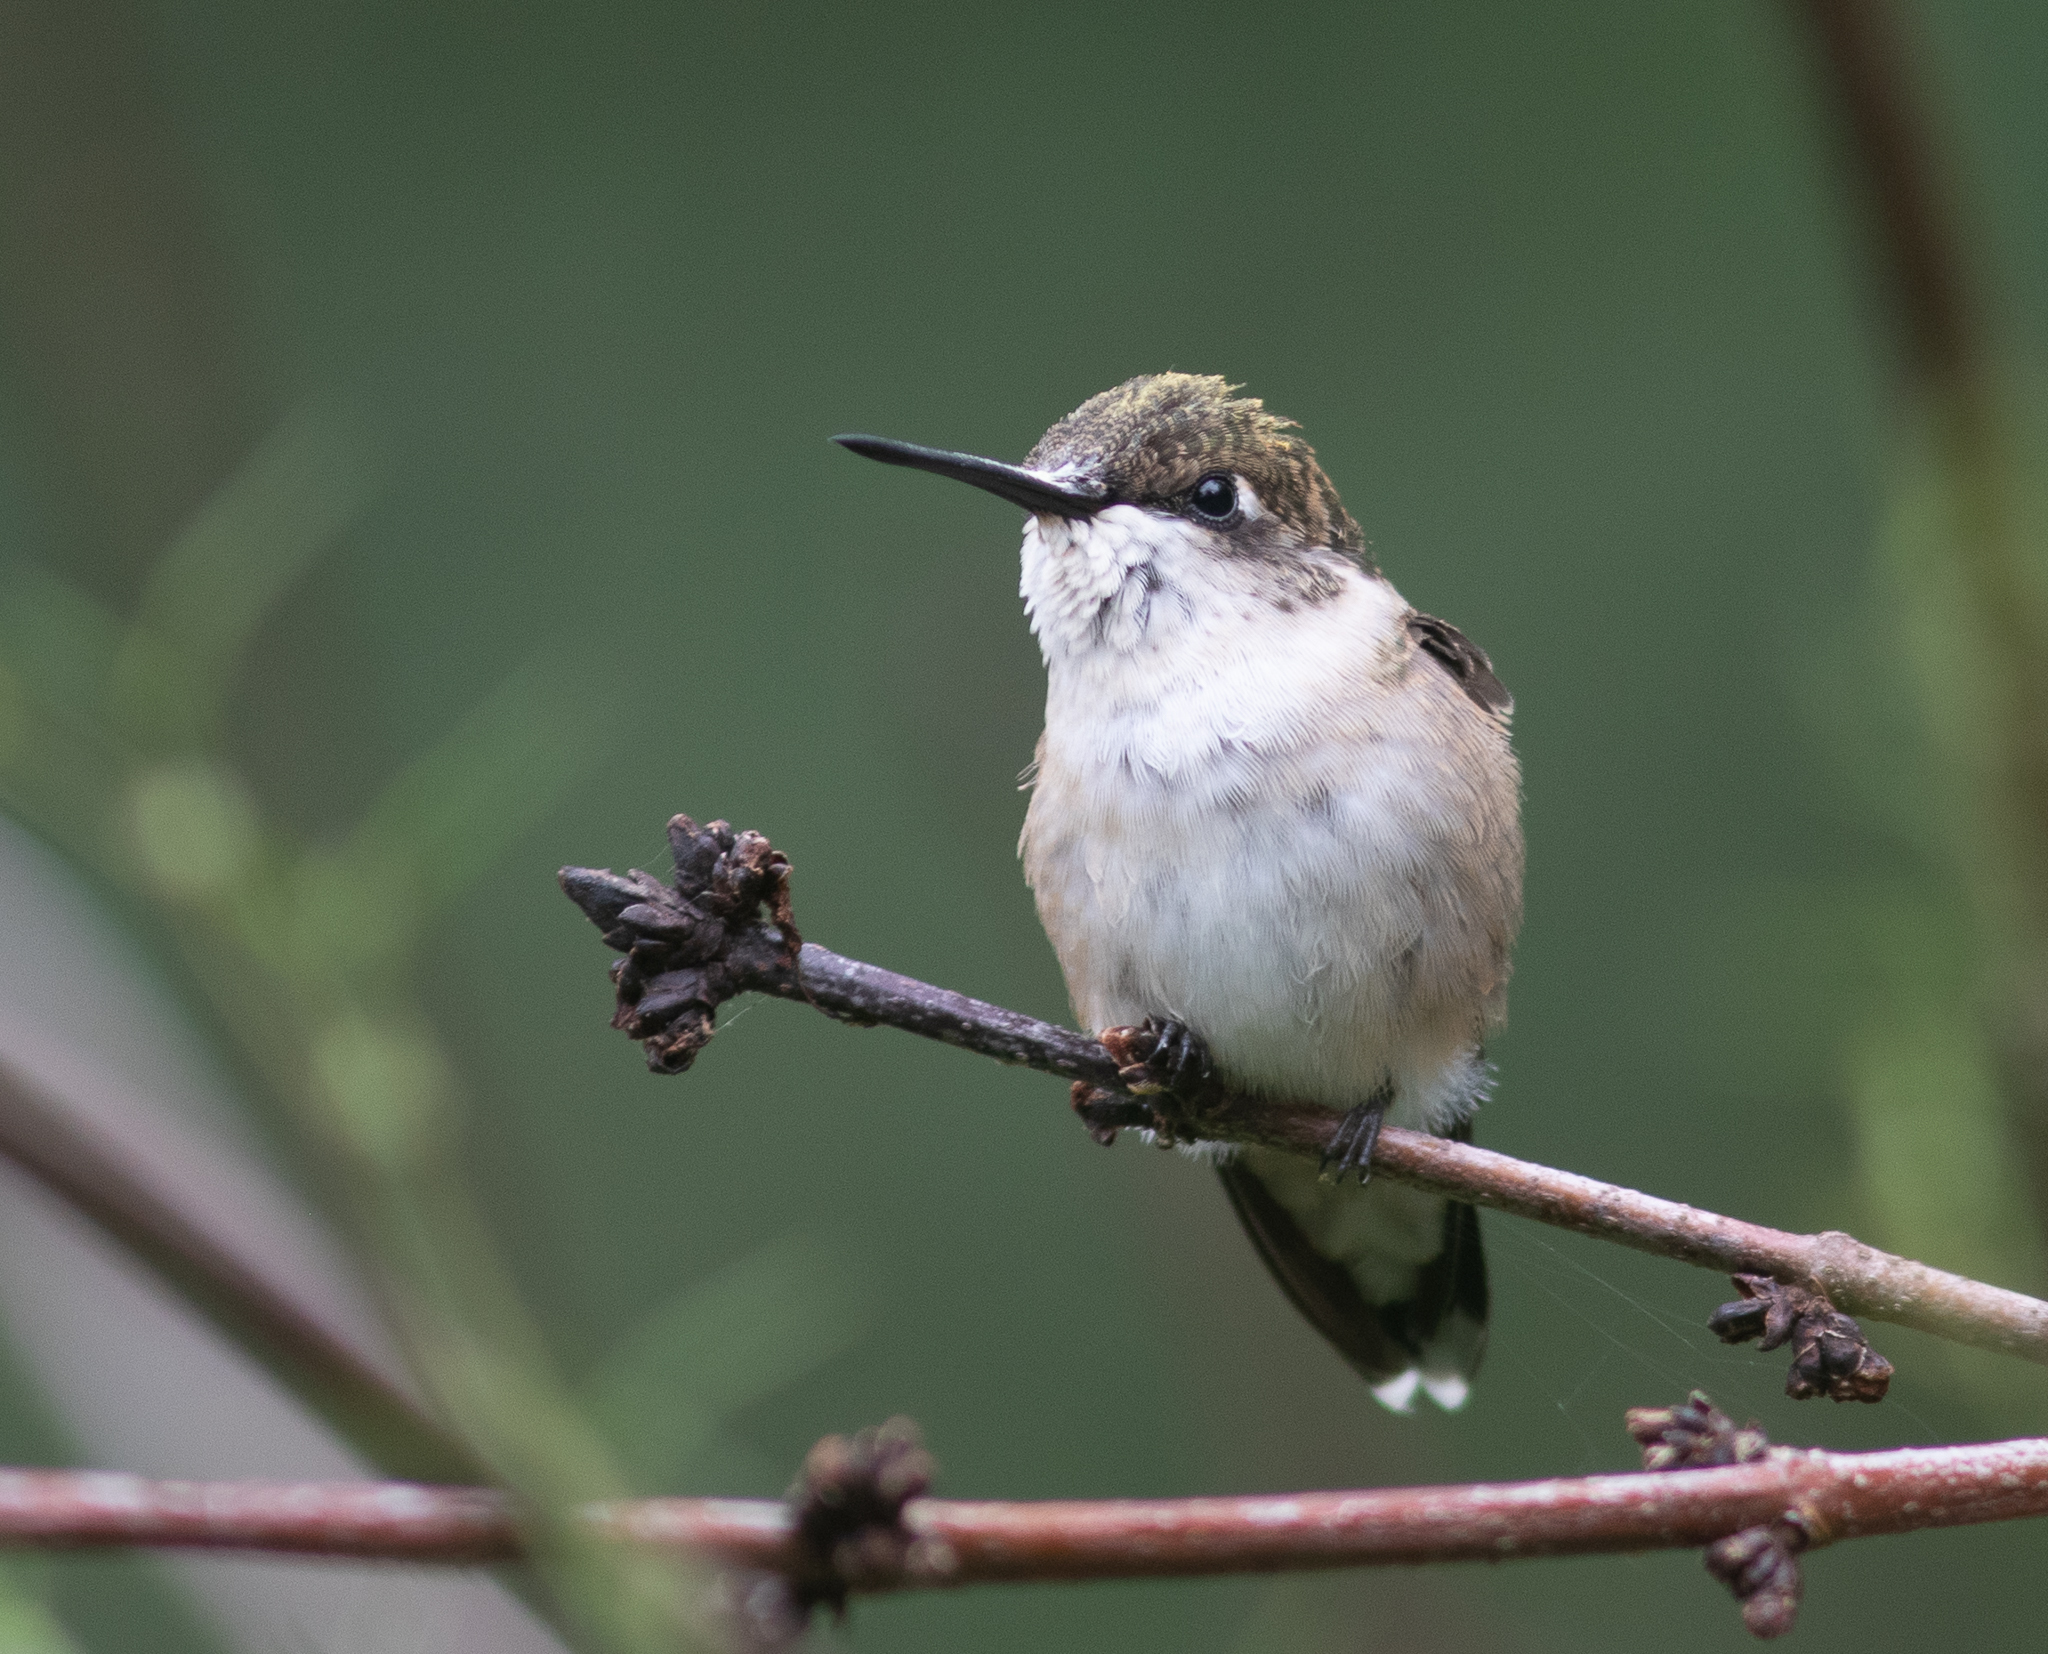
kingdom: Animalia
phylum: Chordata
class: Aves
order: Apodiformes
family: Trochilidae
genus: Archilochus
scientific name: Archilochus colubris
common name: Ruby-throated hummingbird
